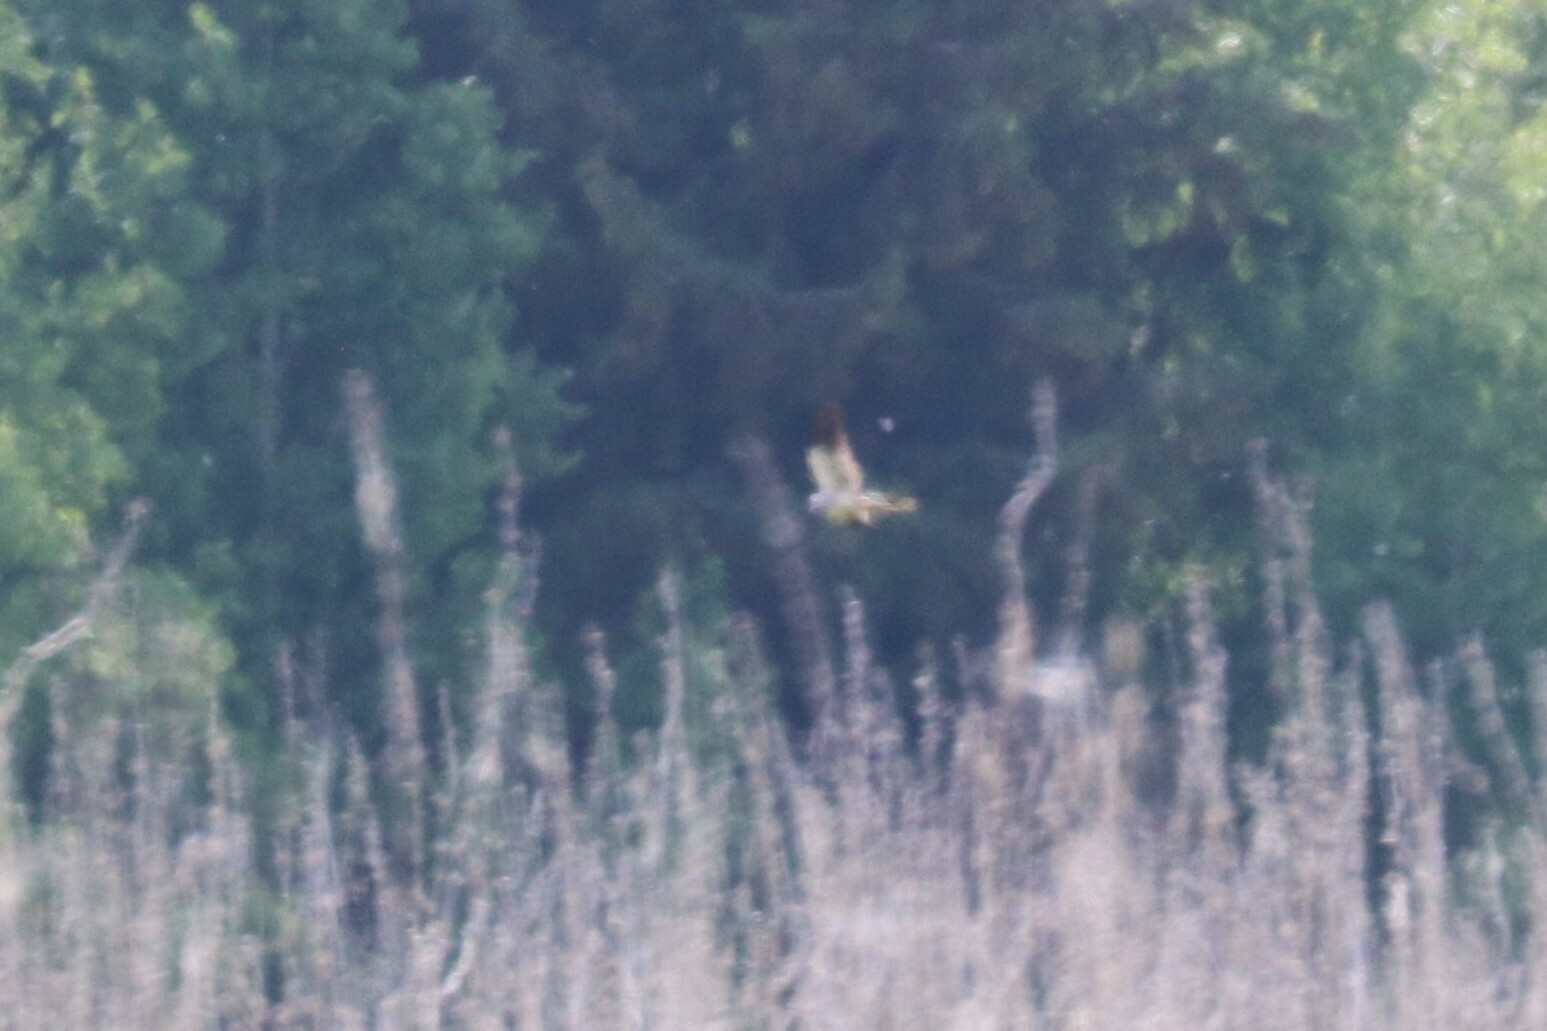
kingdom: Animalia
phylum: Chordata
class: Aves
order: Accipitriformes
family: Accipitridae
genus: Circus
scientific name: Circus pygargus
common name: Montagu's harrier
